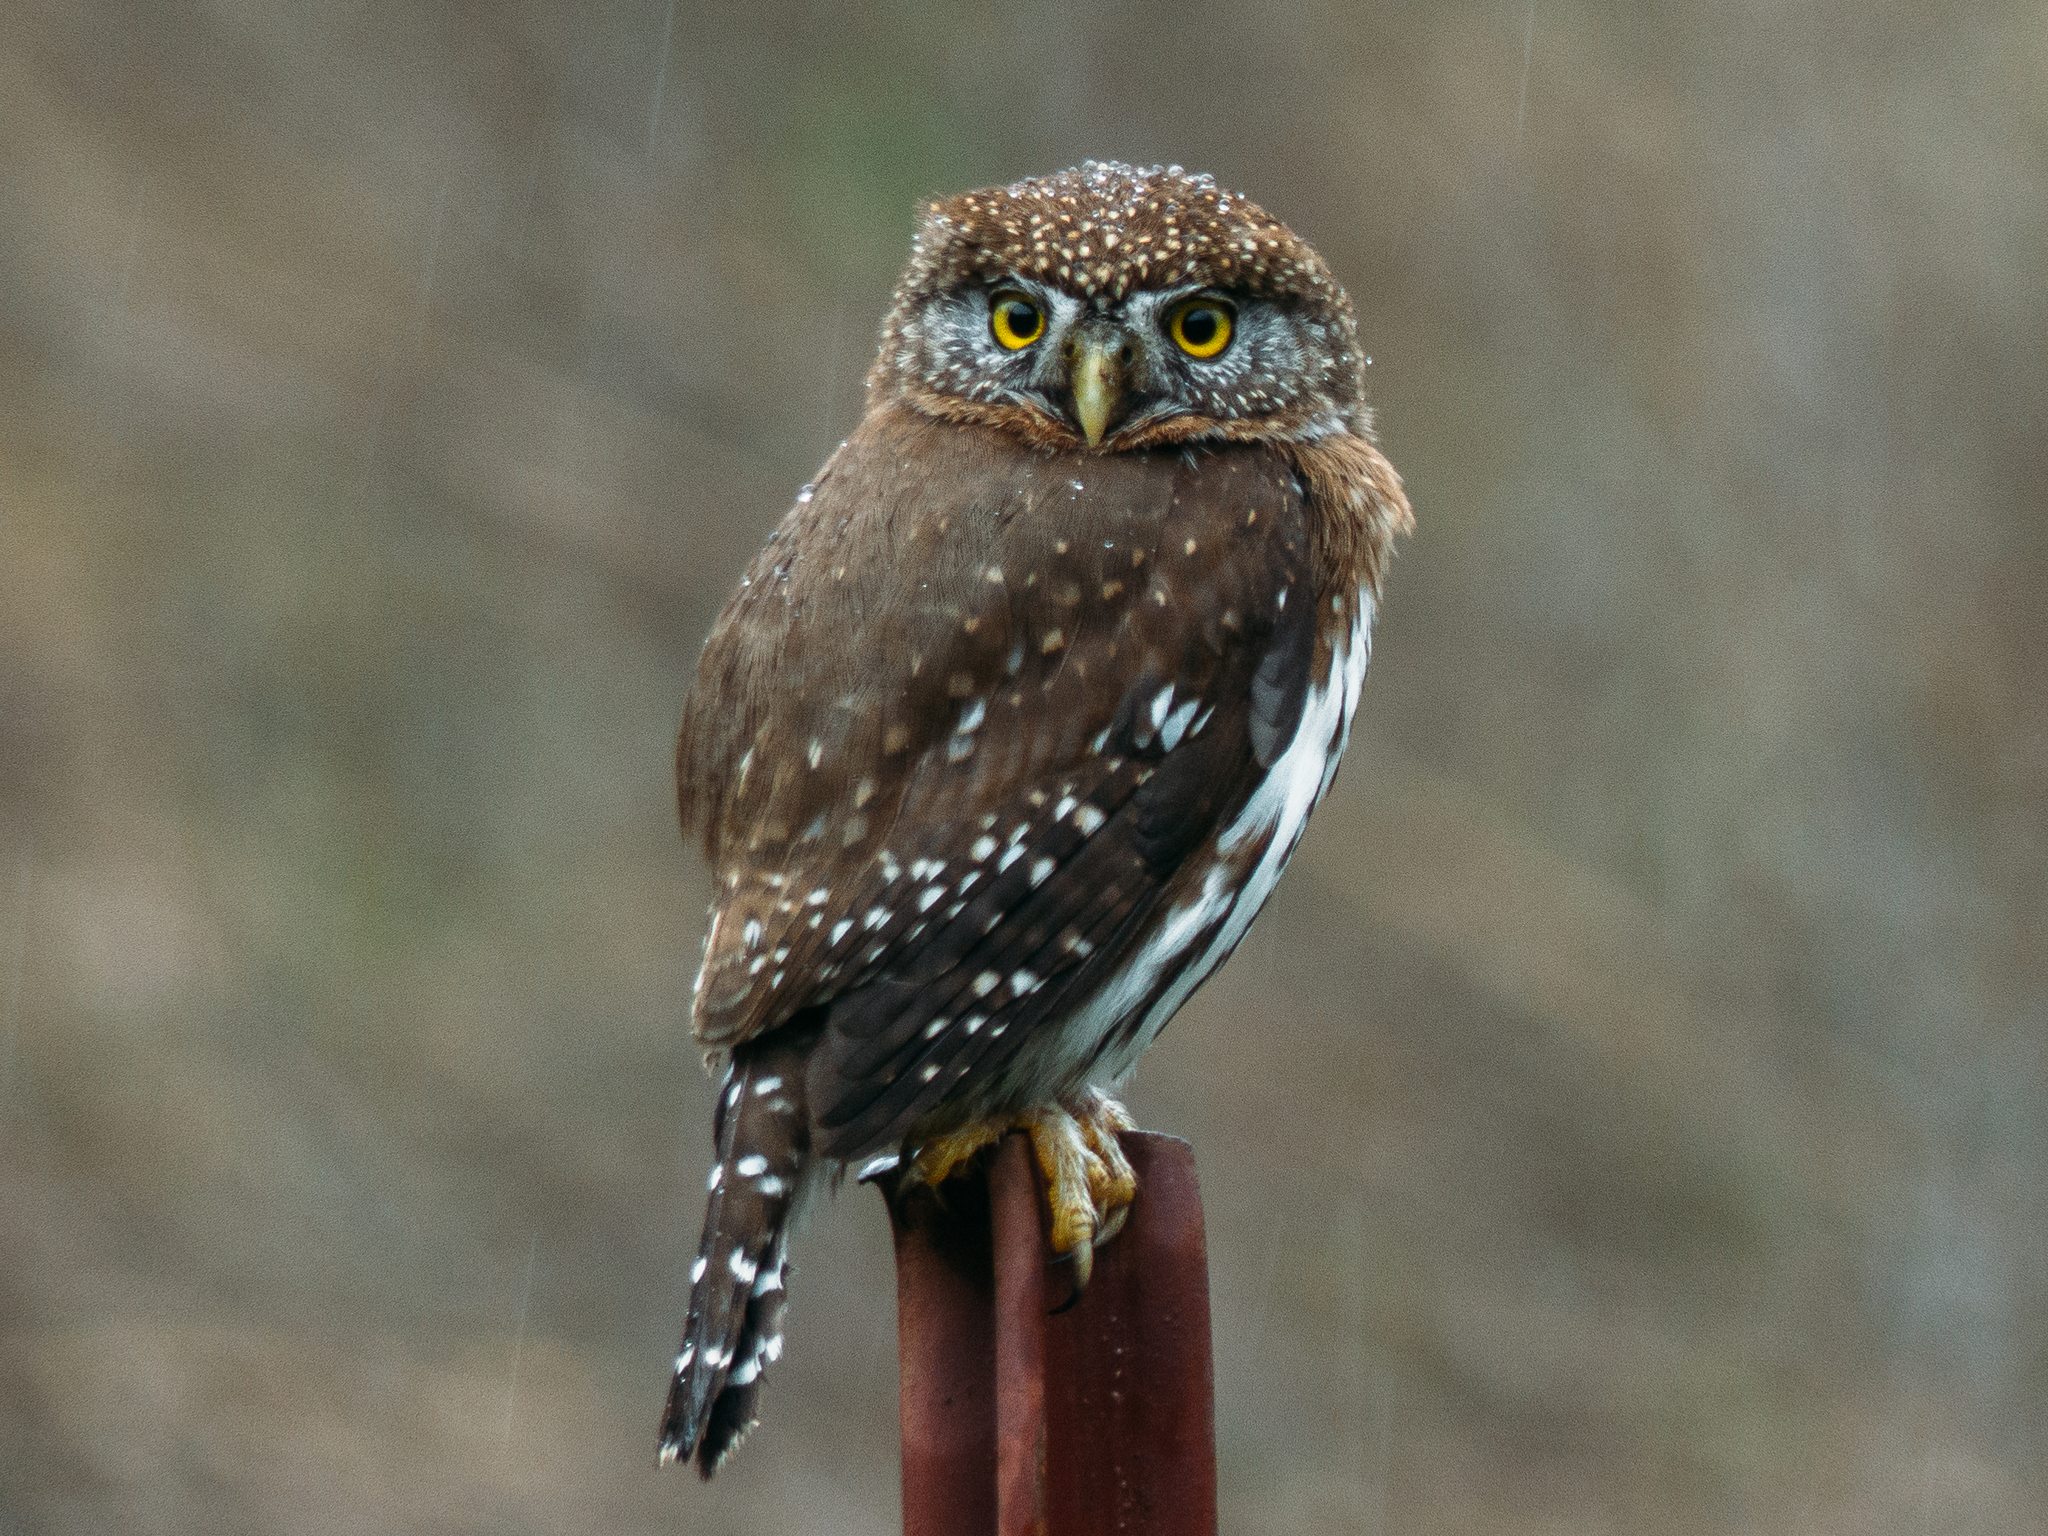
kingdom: Animalia
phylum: Chordata
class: Aves
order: Strigiformes
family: Strigidae
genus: Glaucidium
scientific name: Glaucidium gnoma
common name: Northern pygmy-owl
